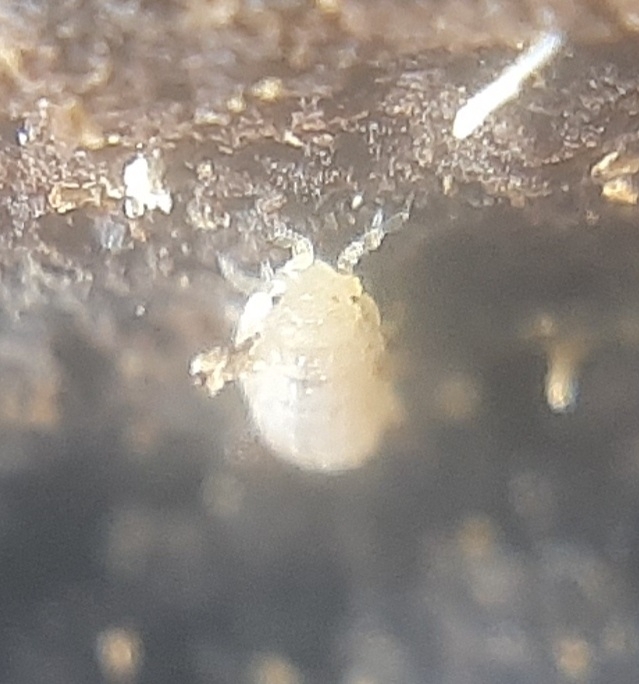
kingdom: Animalia
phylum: Arthropoda
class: Malacostraca
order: Isopoda
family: Trichoniscidae
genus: Haplophthalmus
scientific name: Haplophthalmus danicus
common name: Pillbug
